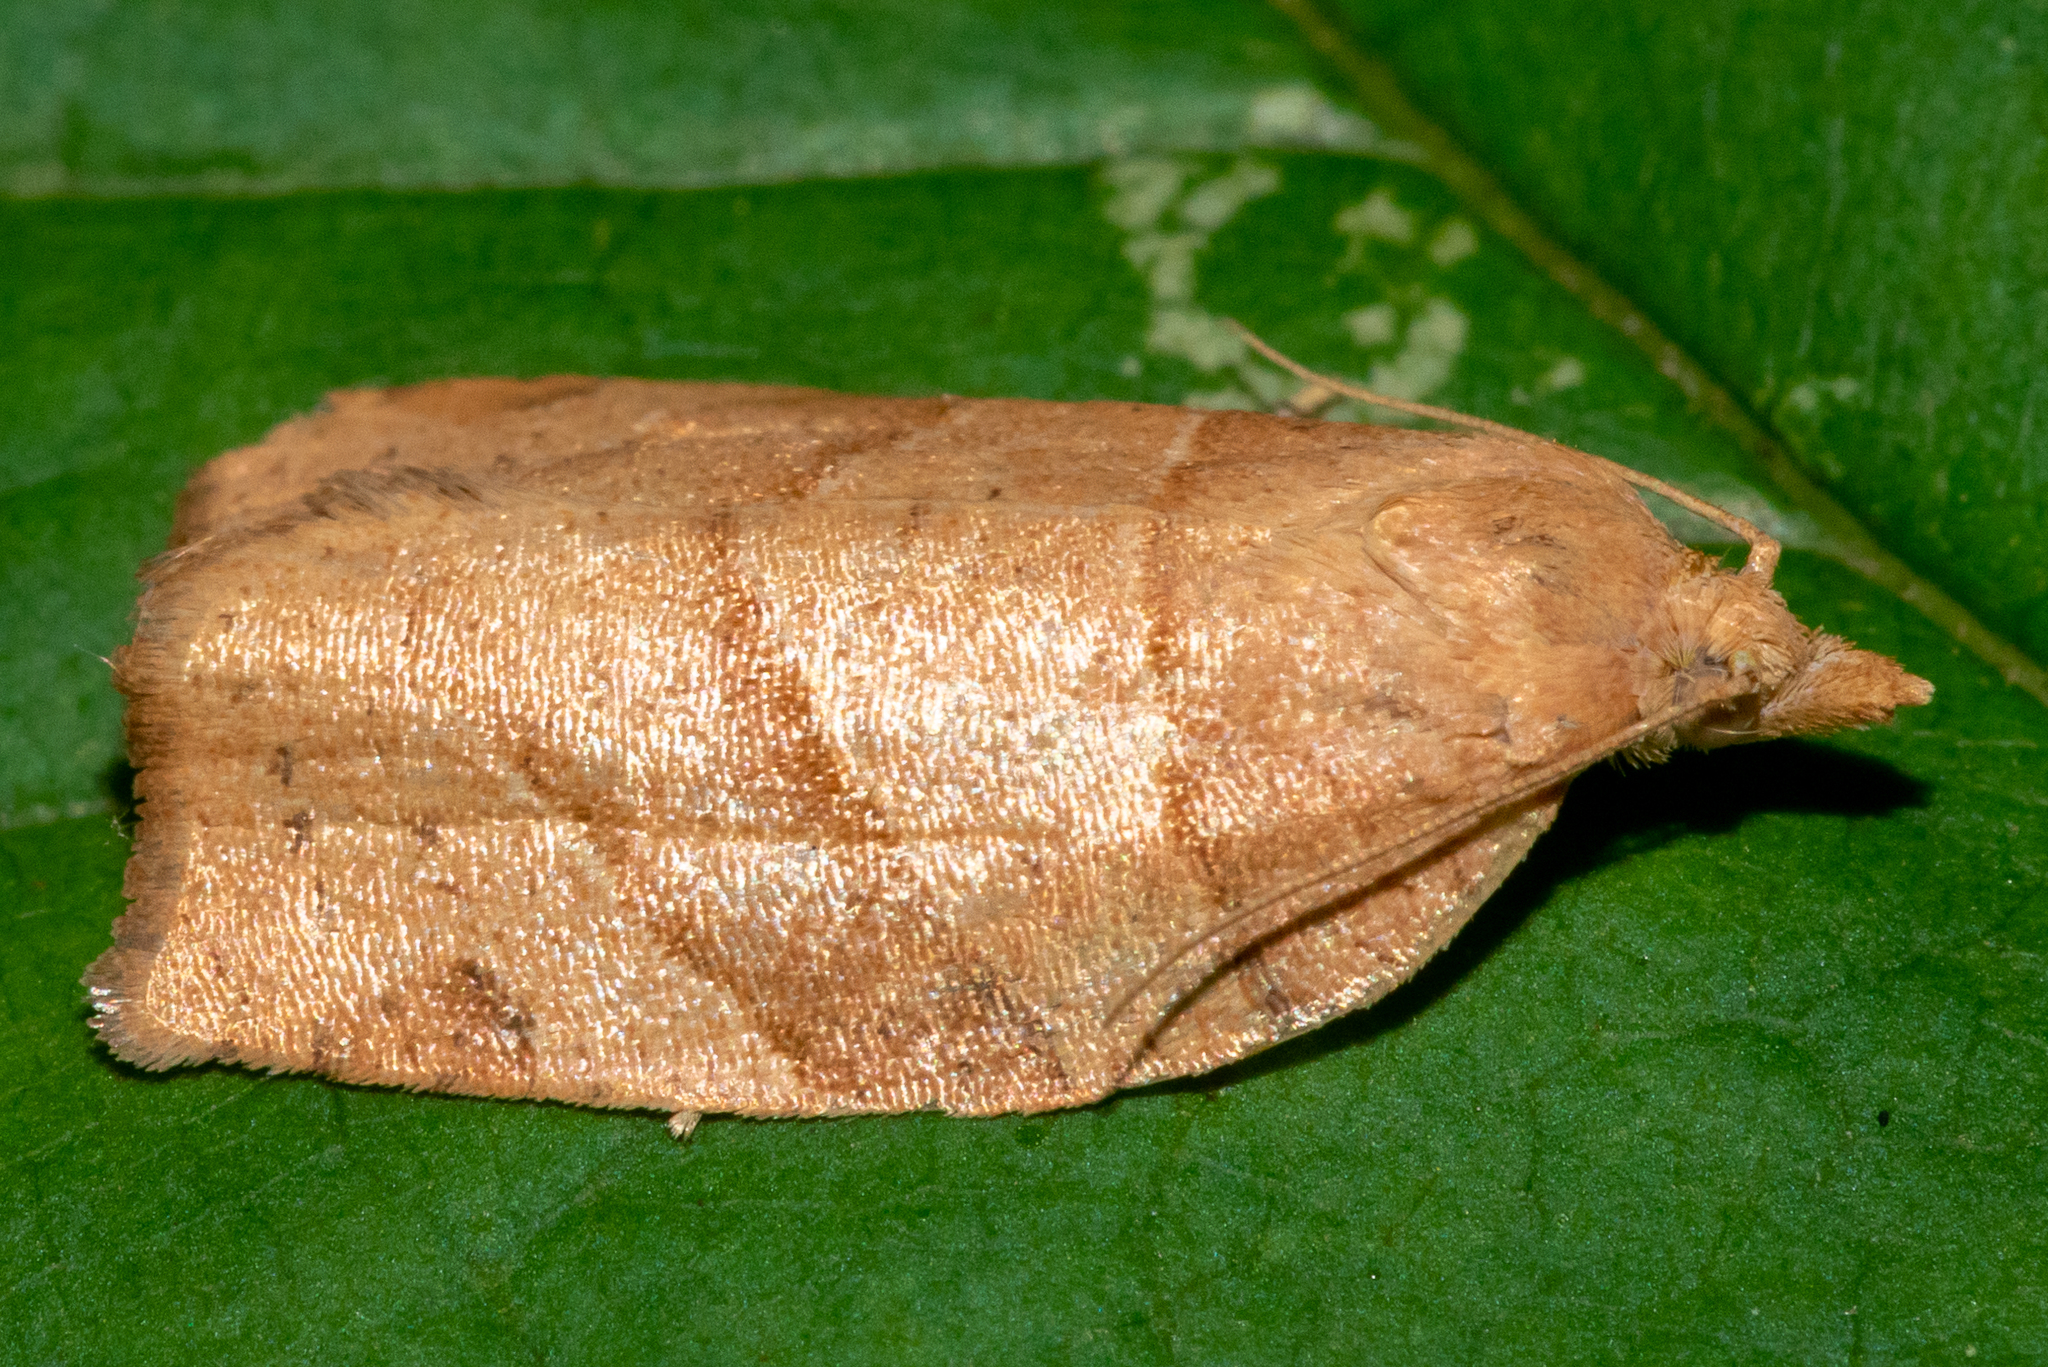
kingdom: Animalia
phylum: Arthropoda
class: Insecta
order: Lepidoptera
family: Tortricidae
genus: Choristoneura
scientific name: Choristoneura rosaceana
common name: Oblique-banded leafroller moth
